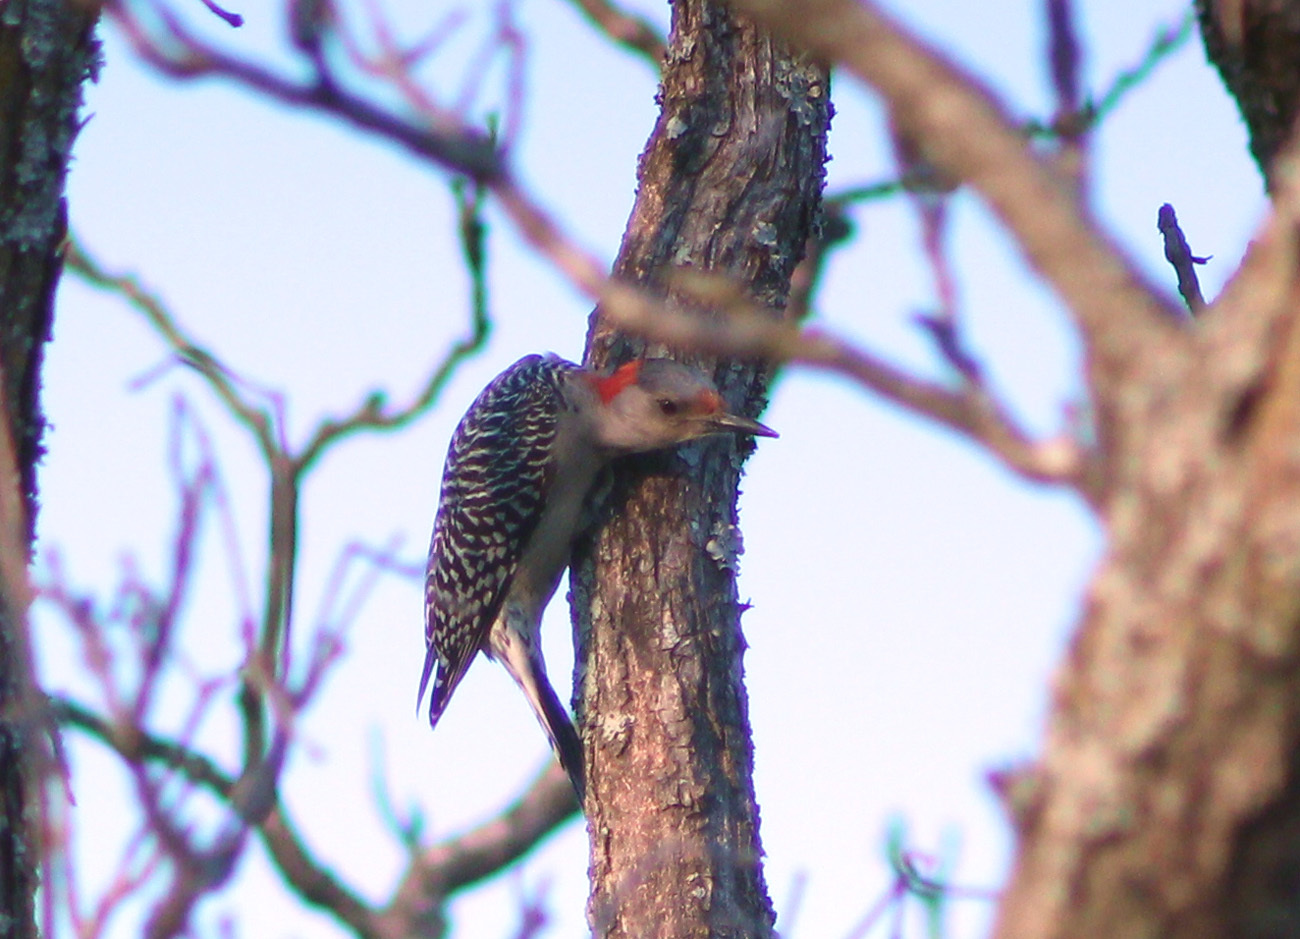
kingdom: Animalia
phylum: Chordata
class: Aves
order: Piciformes
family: Picidae
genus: Melanerpes
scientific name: Melanerpes carolinus
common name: Red-bellied woodpecker
